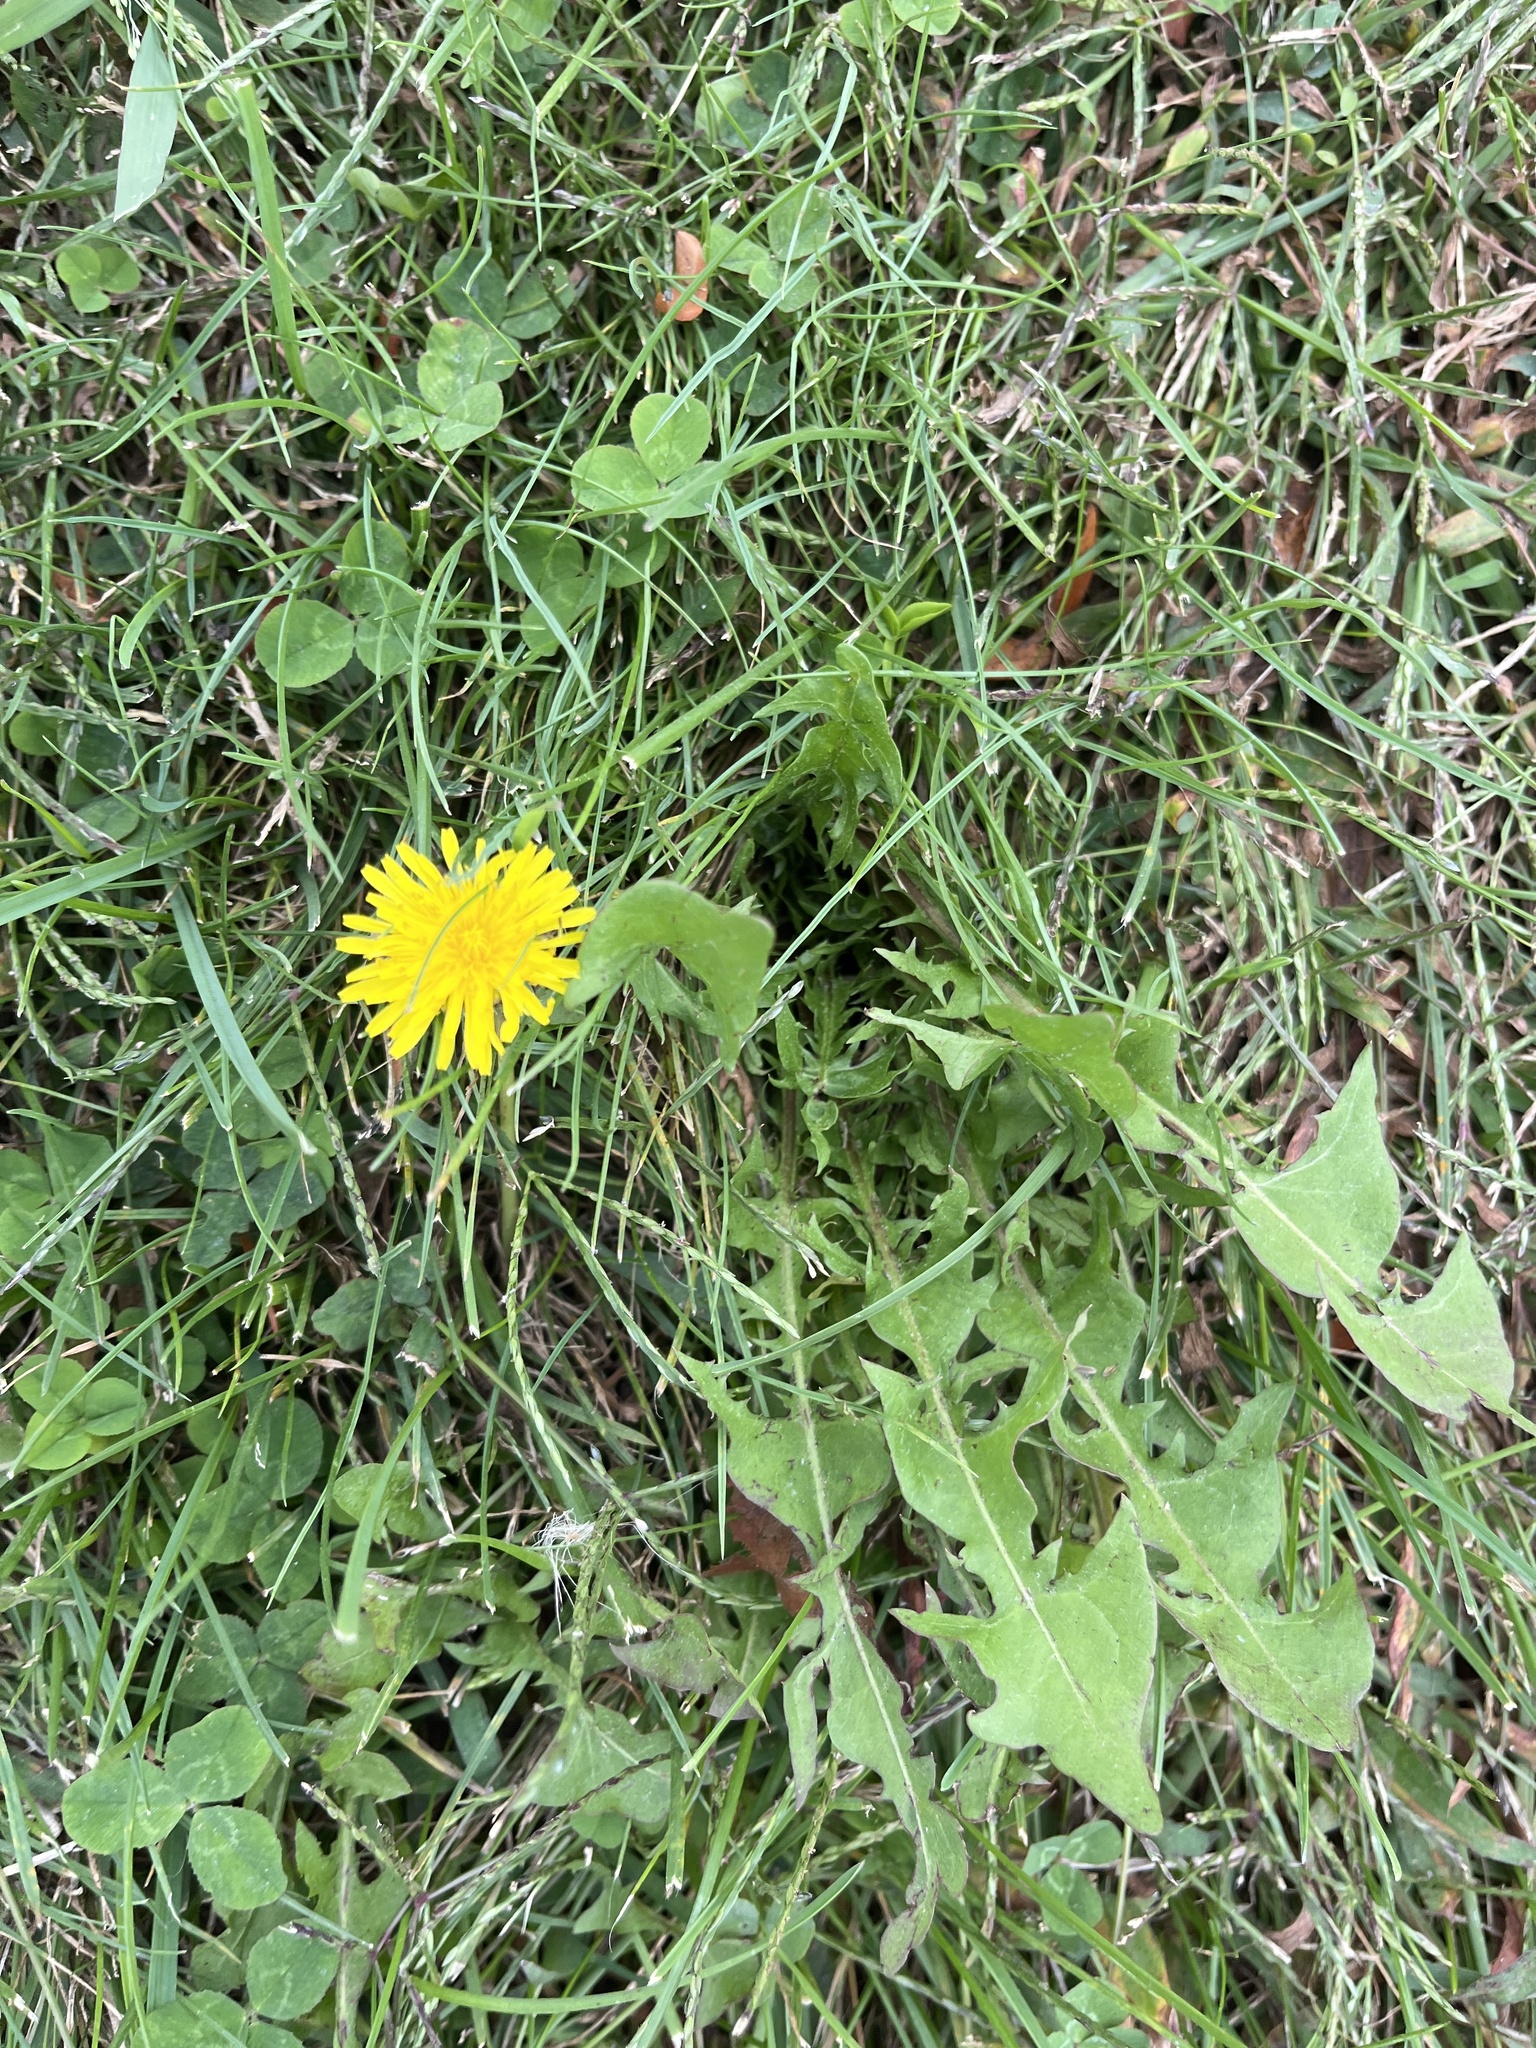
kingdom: Plantae
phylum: Tracheophyta
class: Magnoliopsida
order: Asterales
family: Asteraceae
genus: Taraxacum
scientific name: Taraxacum officinale
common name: Common dandelion
